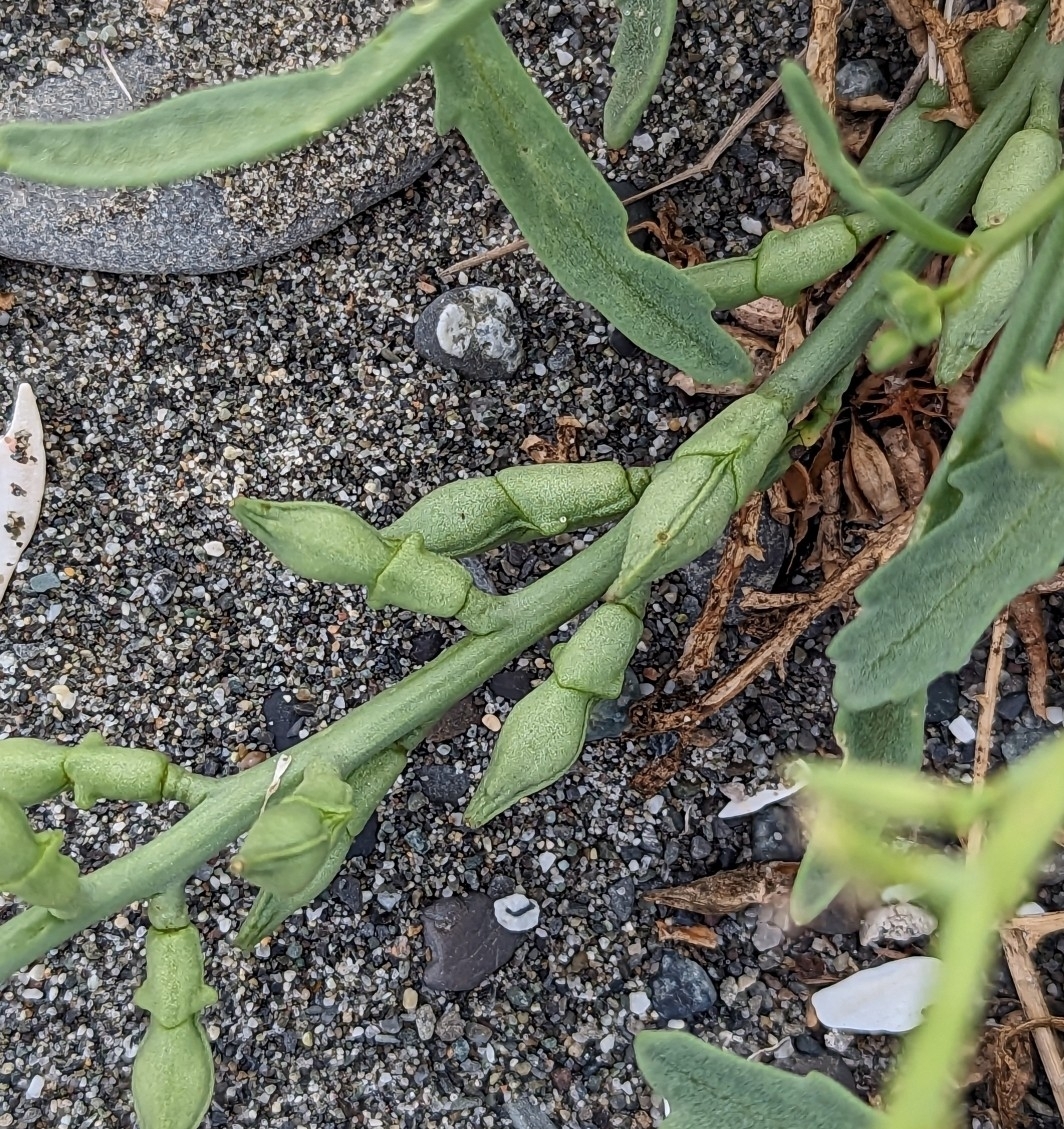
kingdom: Plantae
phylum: Tracheophyta
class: Magnoliopsida
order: Brassicales
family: Brassicaceae
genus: Cakile
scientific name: Cakile maritima
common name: Sea rocket
